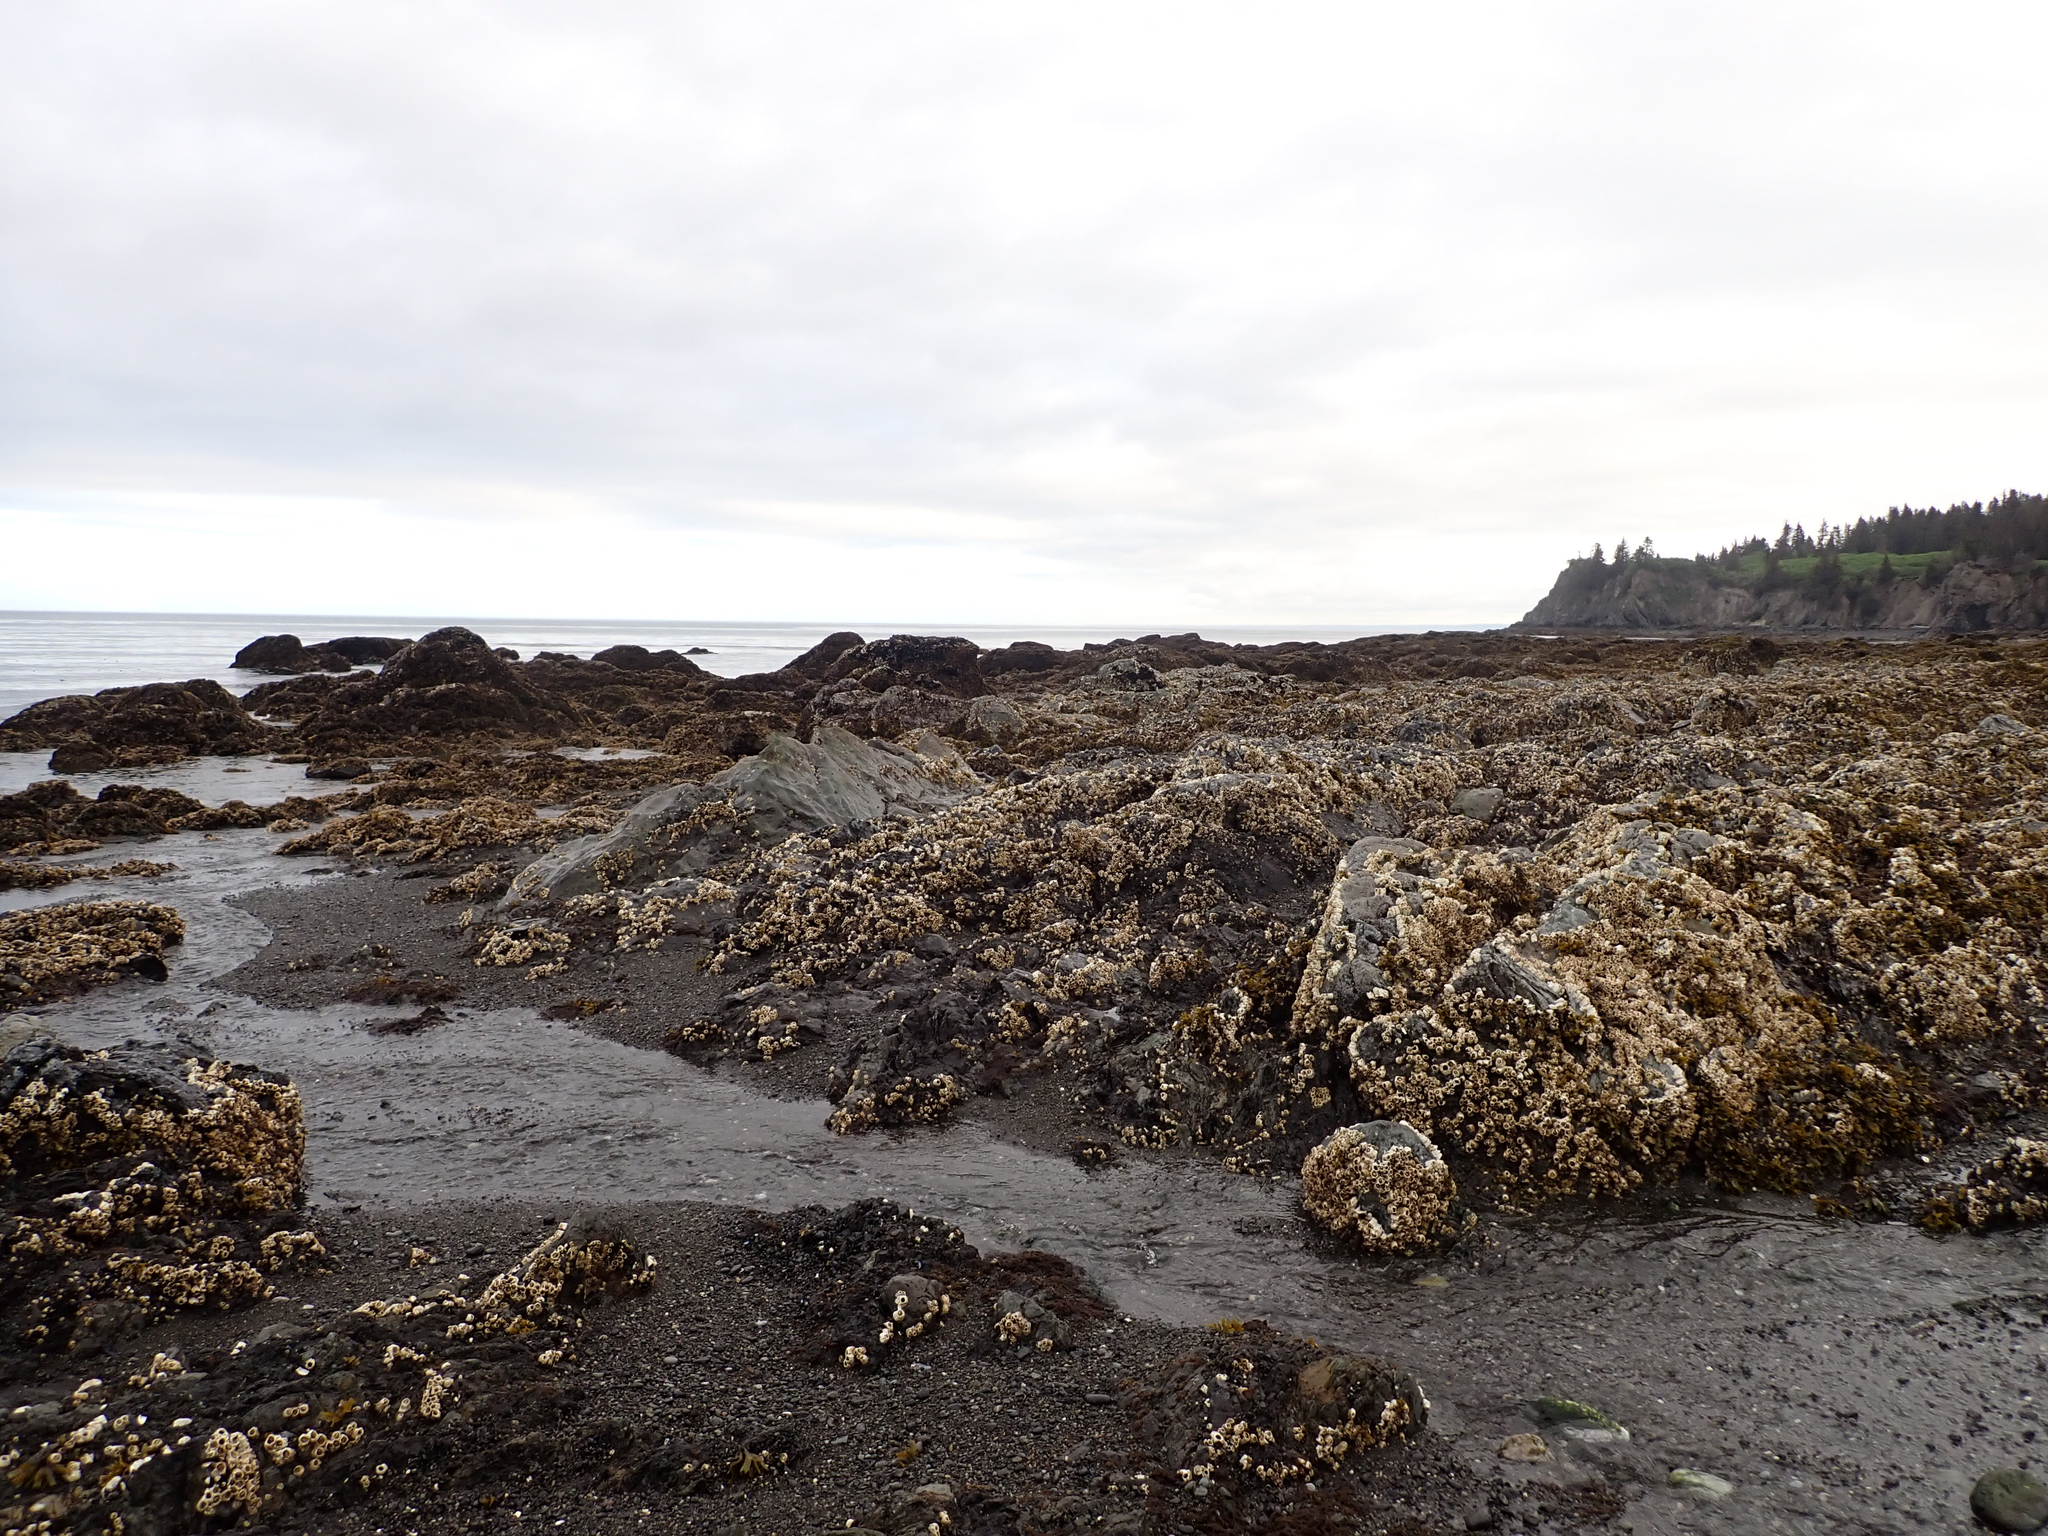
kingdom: Animalia
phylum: Arthropoda
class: Maxillopoda
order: Sessilia
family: Archaeobalanidae
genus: Semibalanus
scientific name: Semibalanus cariosus
